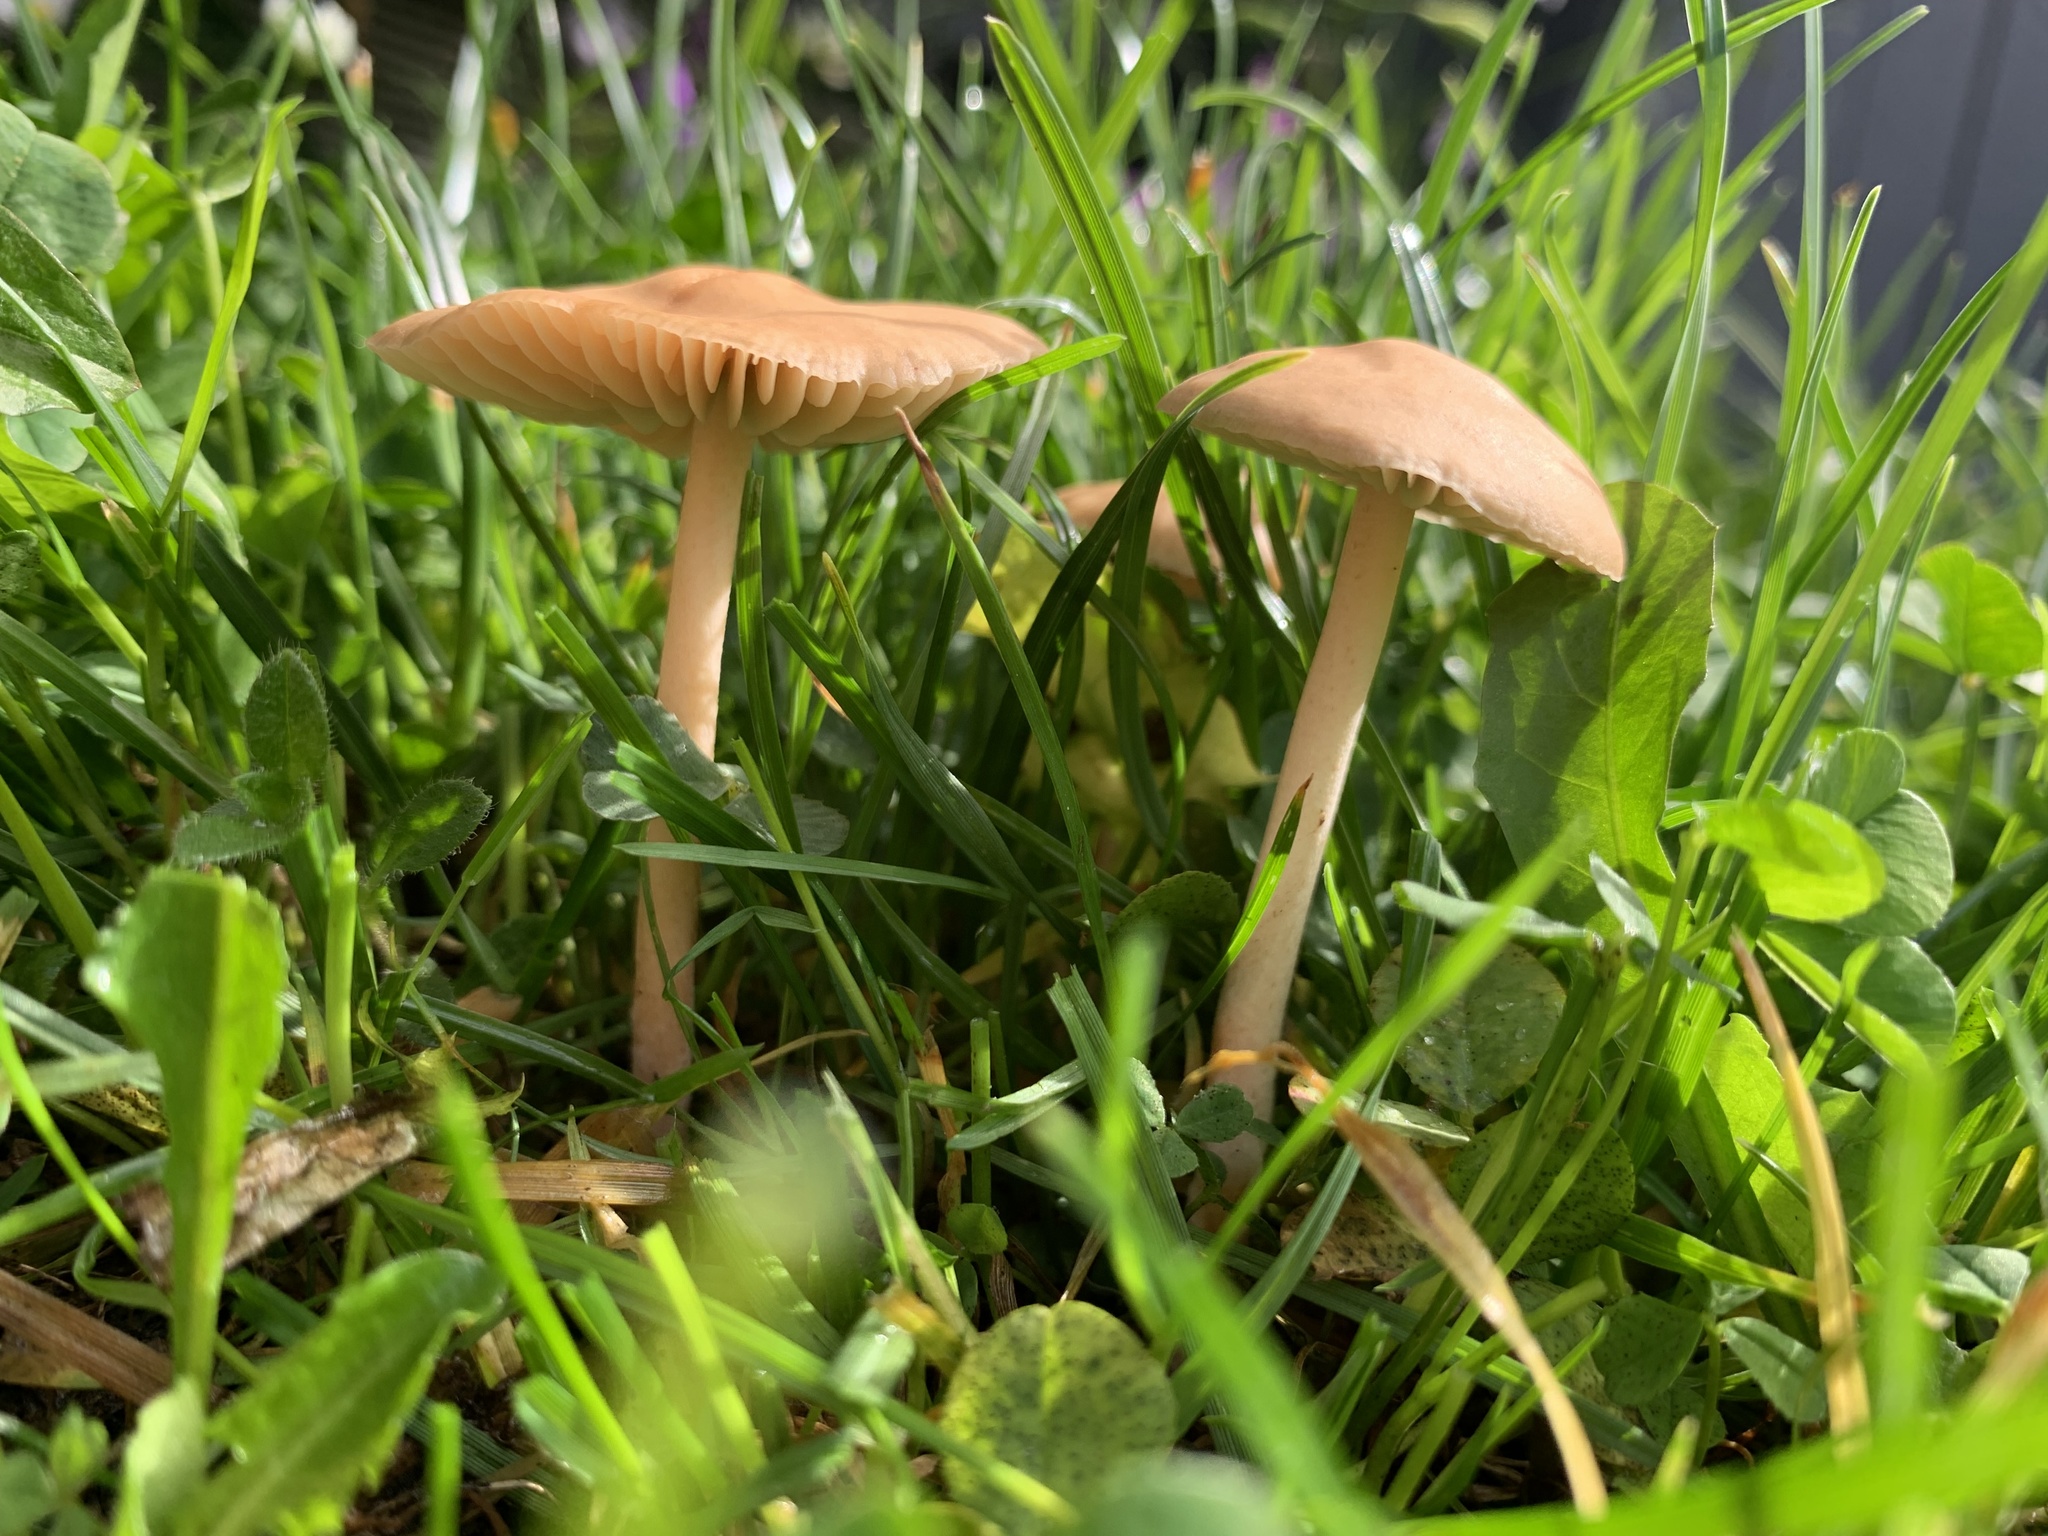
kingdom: Fungi
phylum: Basidiomycota
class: Agaricomycetes
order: Agaricales
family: Marasmiaceae
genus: Marasmius
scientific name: Marasmius oreades
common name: Fairy ring champignon
